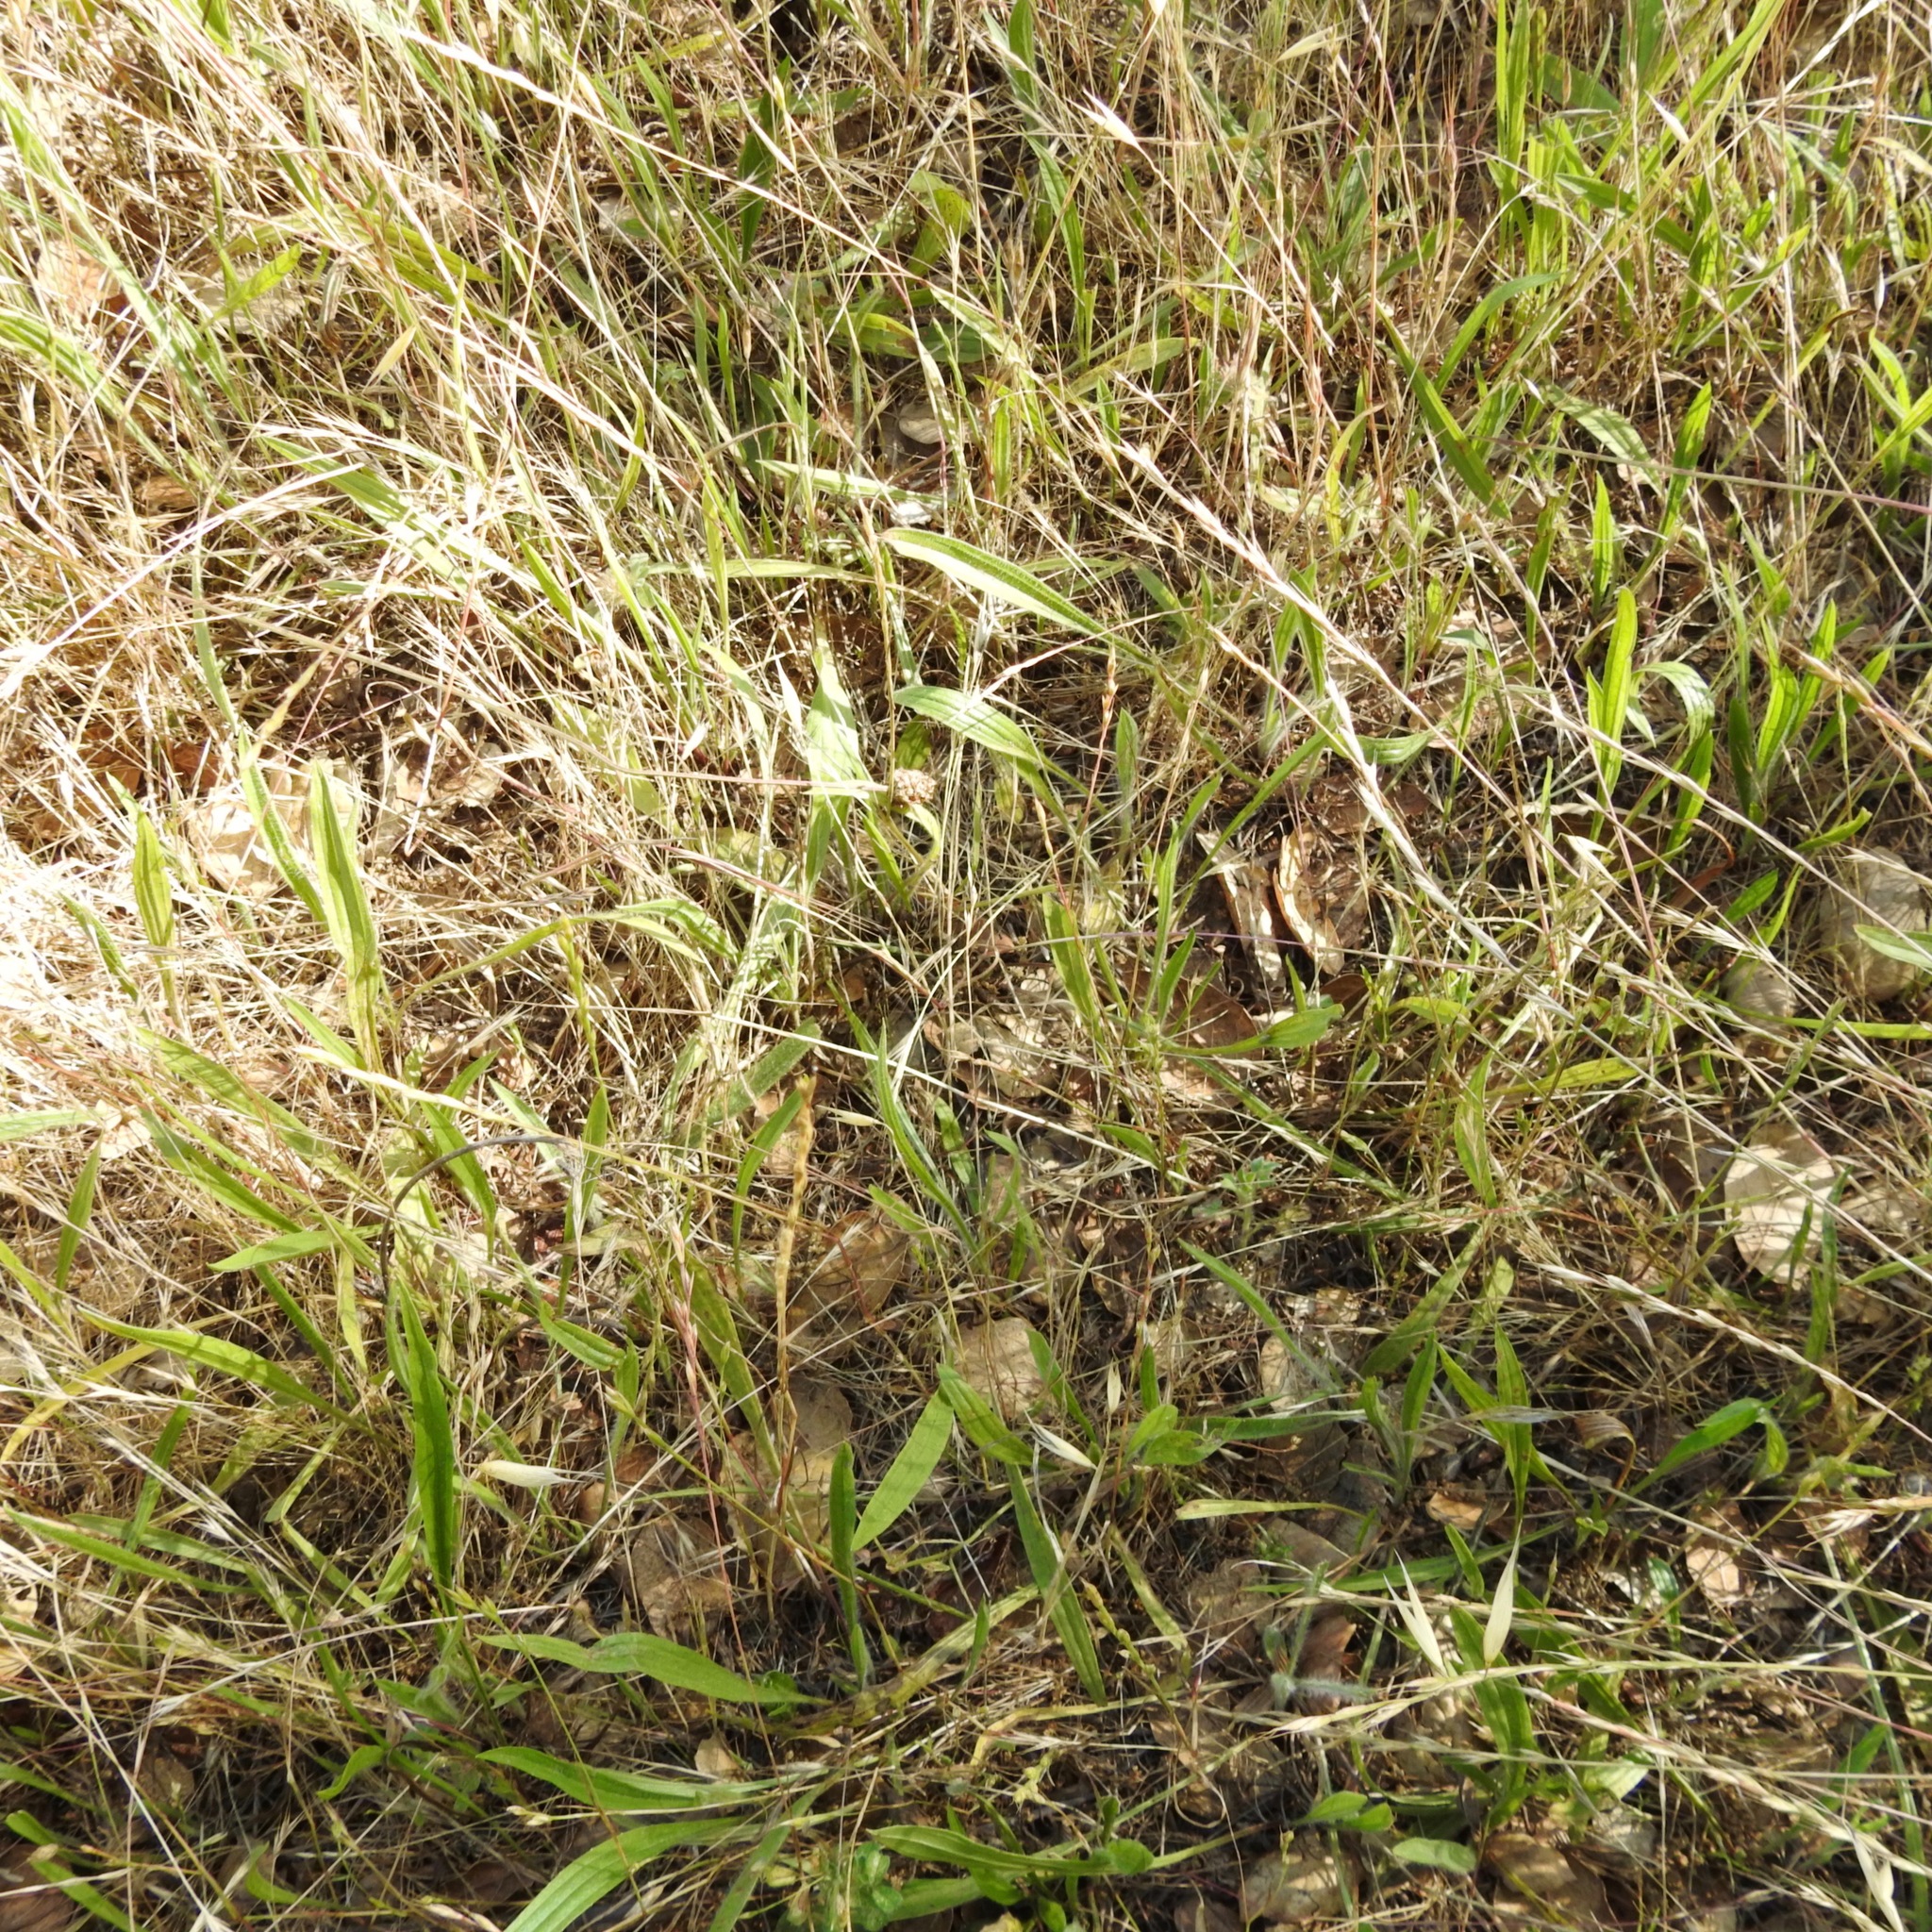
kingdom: Plantae
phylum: Tracheophyta
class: Magnoliopsida
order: Lamiales
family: Plantaginaceae
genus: Plantago
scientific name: Plantago lanceolata
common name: Ribwort plantain
